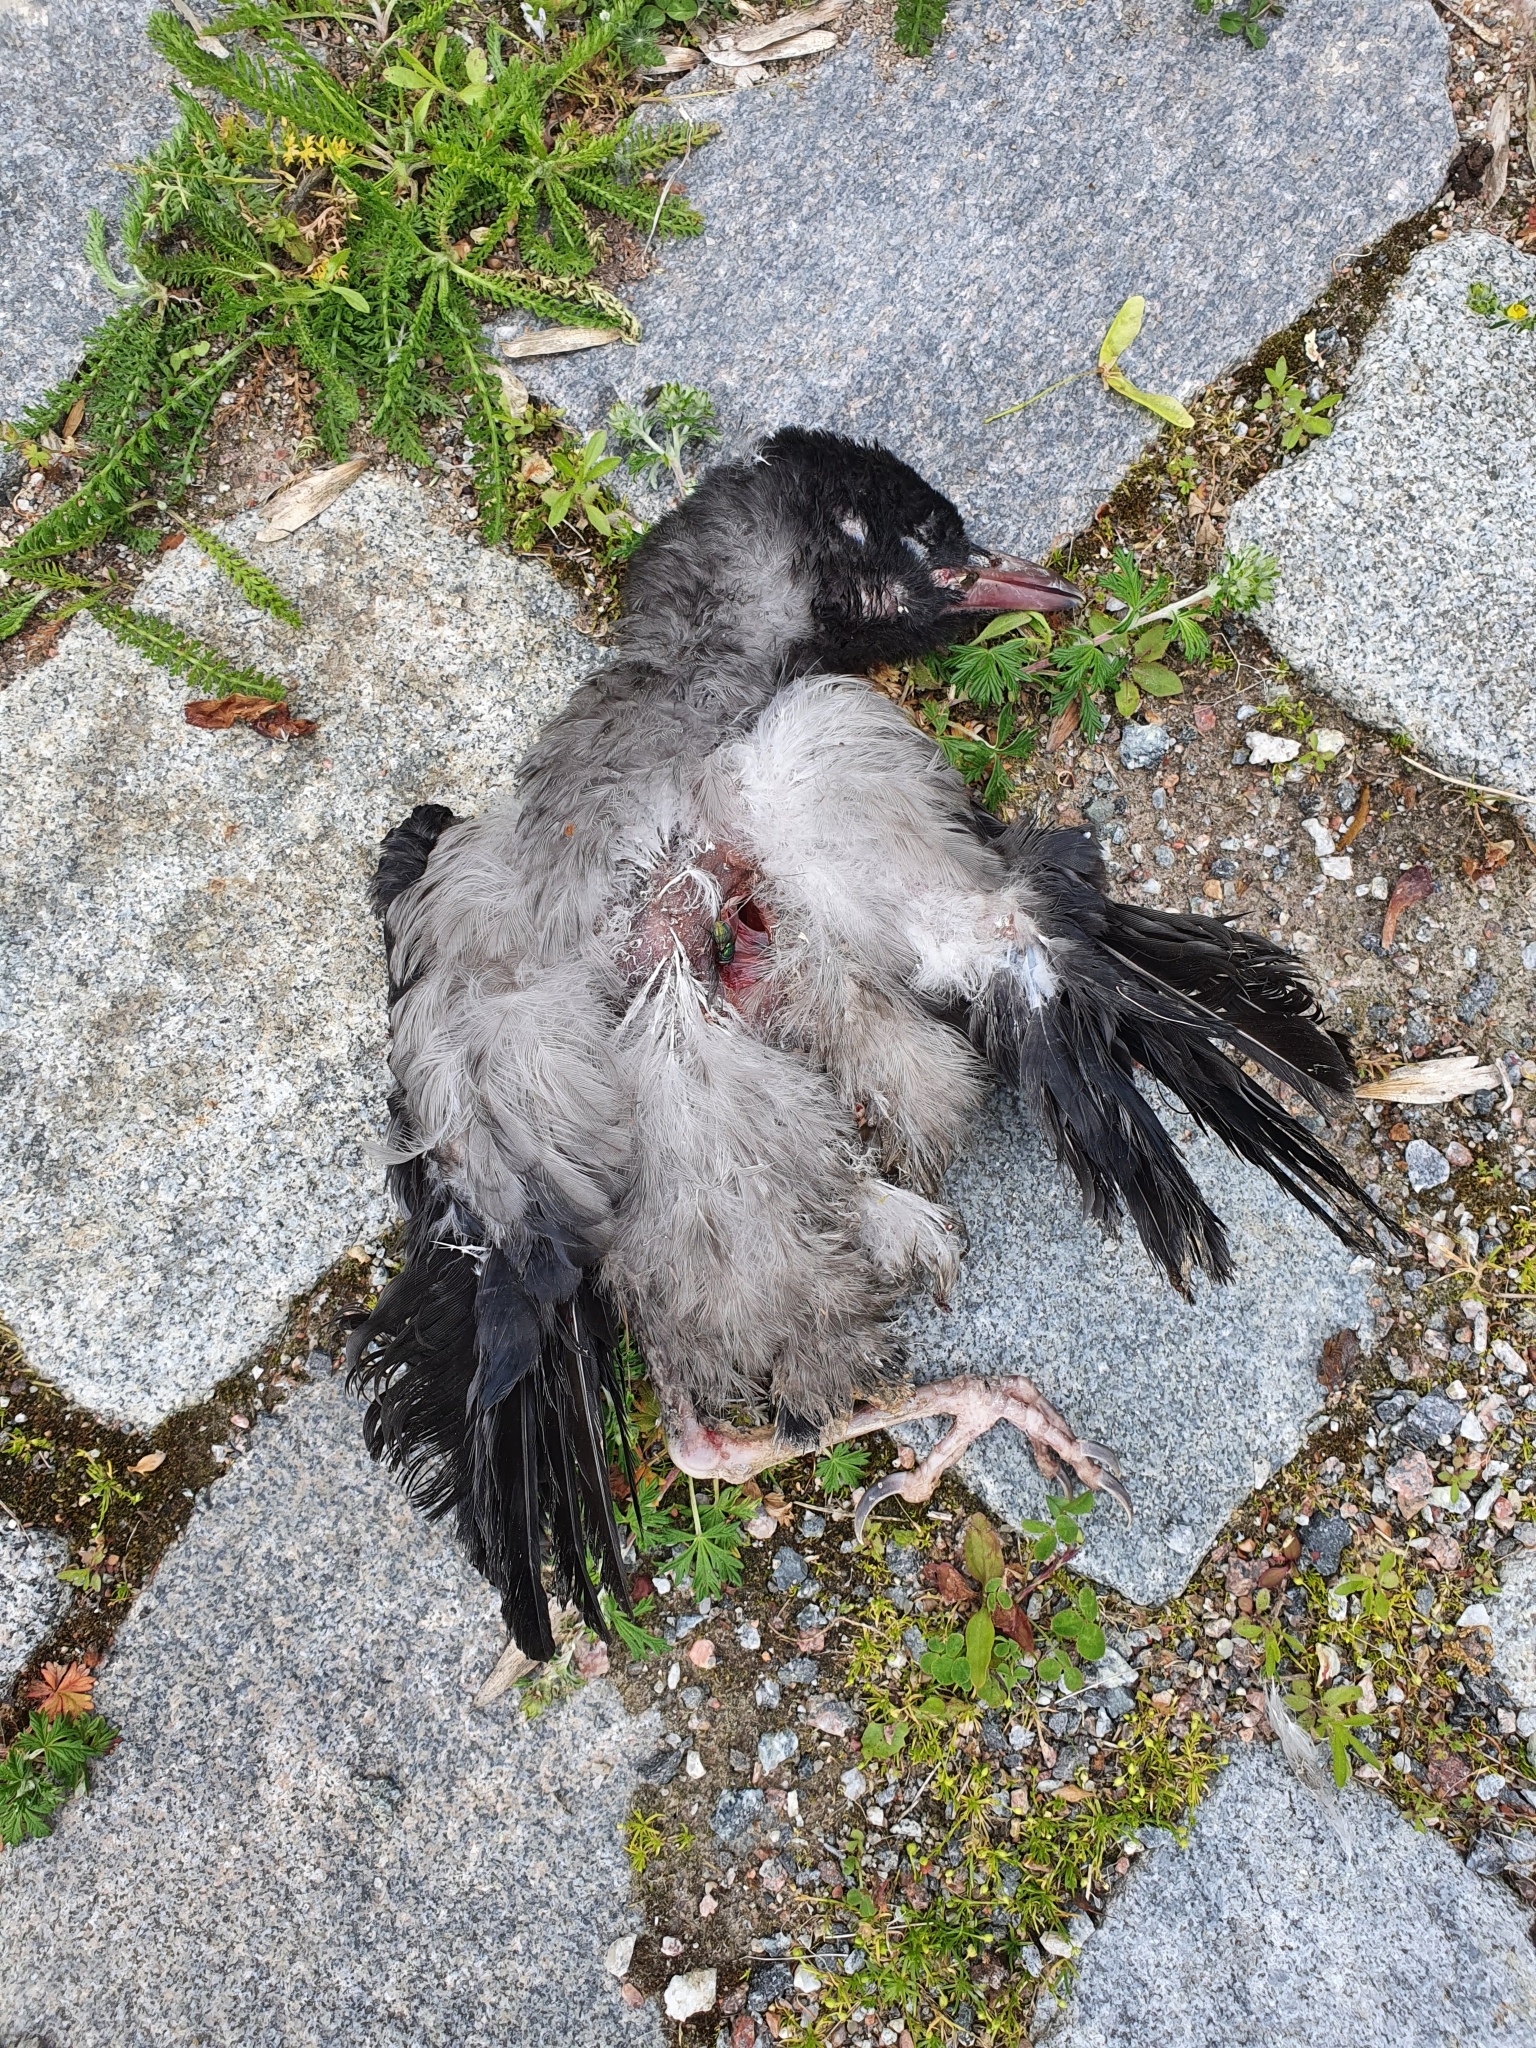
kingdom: Animalia
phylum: Chordata
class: Aves
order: Passeriformes
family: Corvidae
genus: Corvus
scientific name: Corvus cornix
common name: Hooded crow
